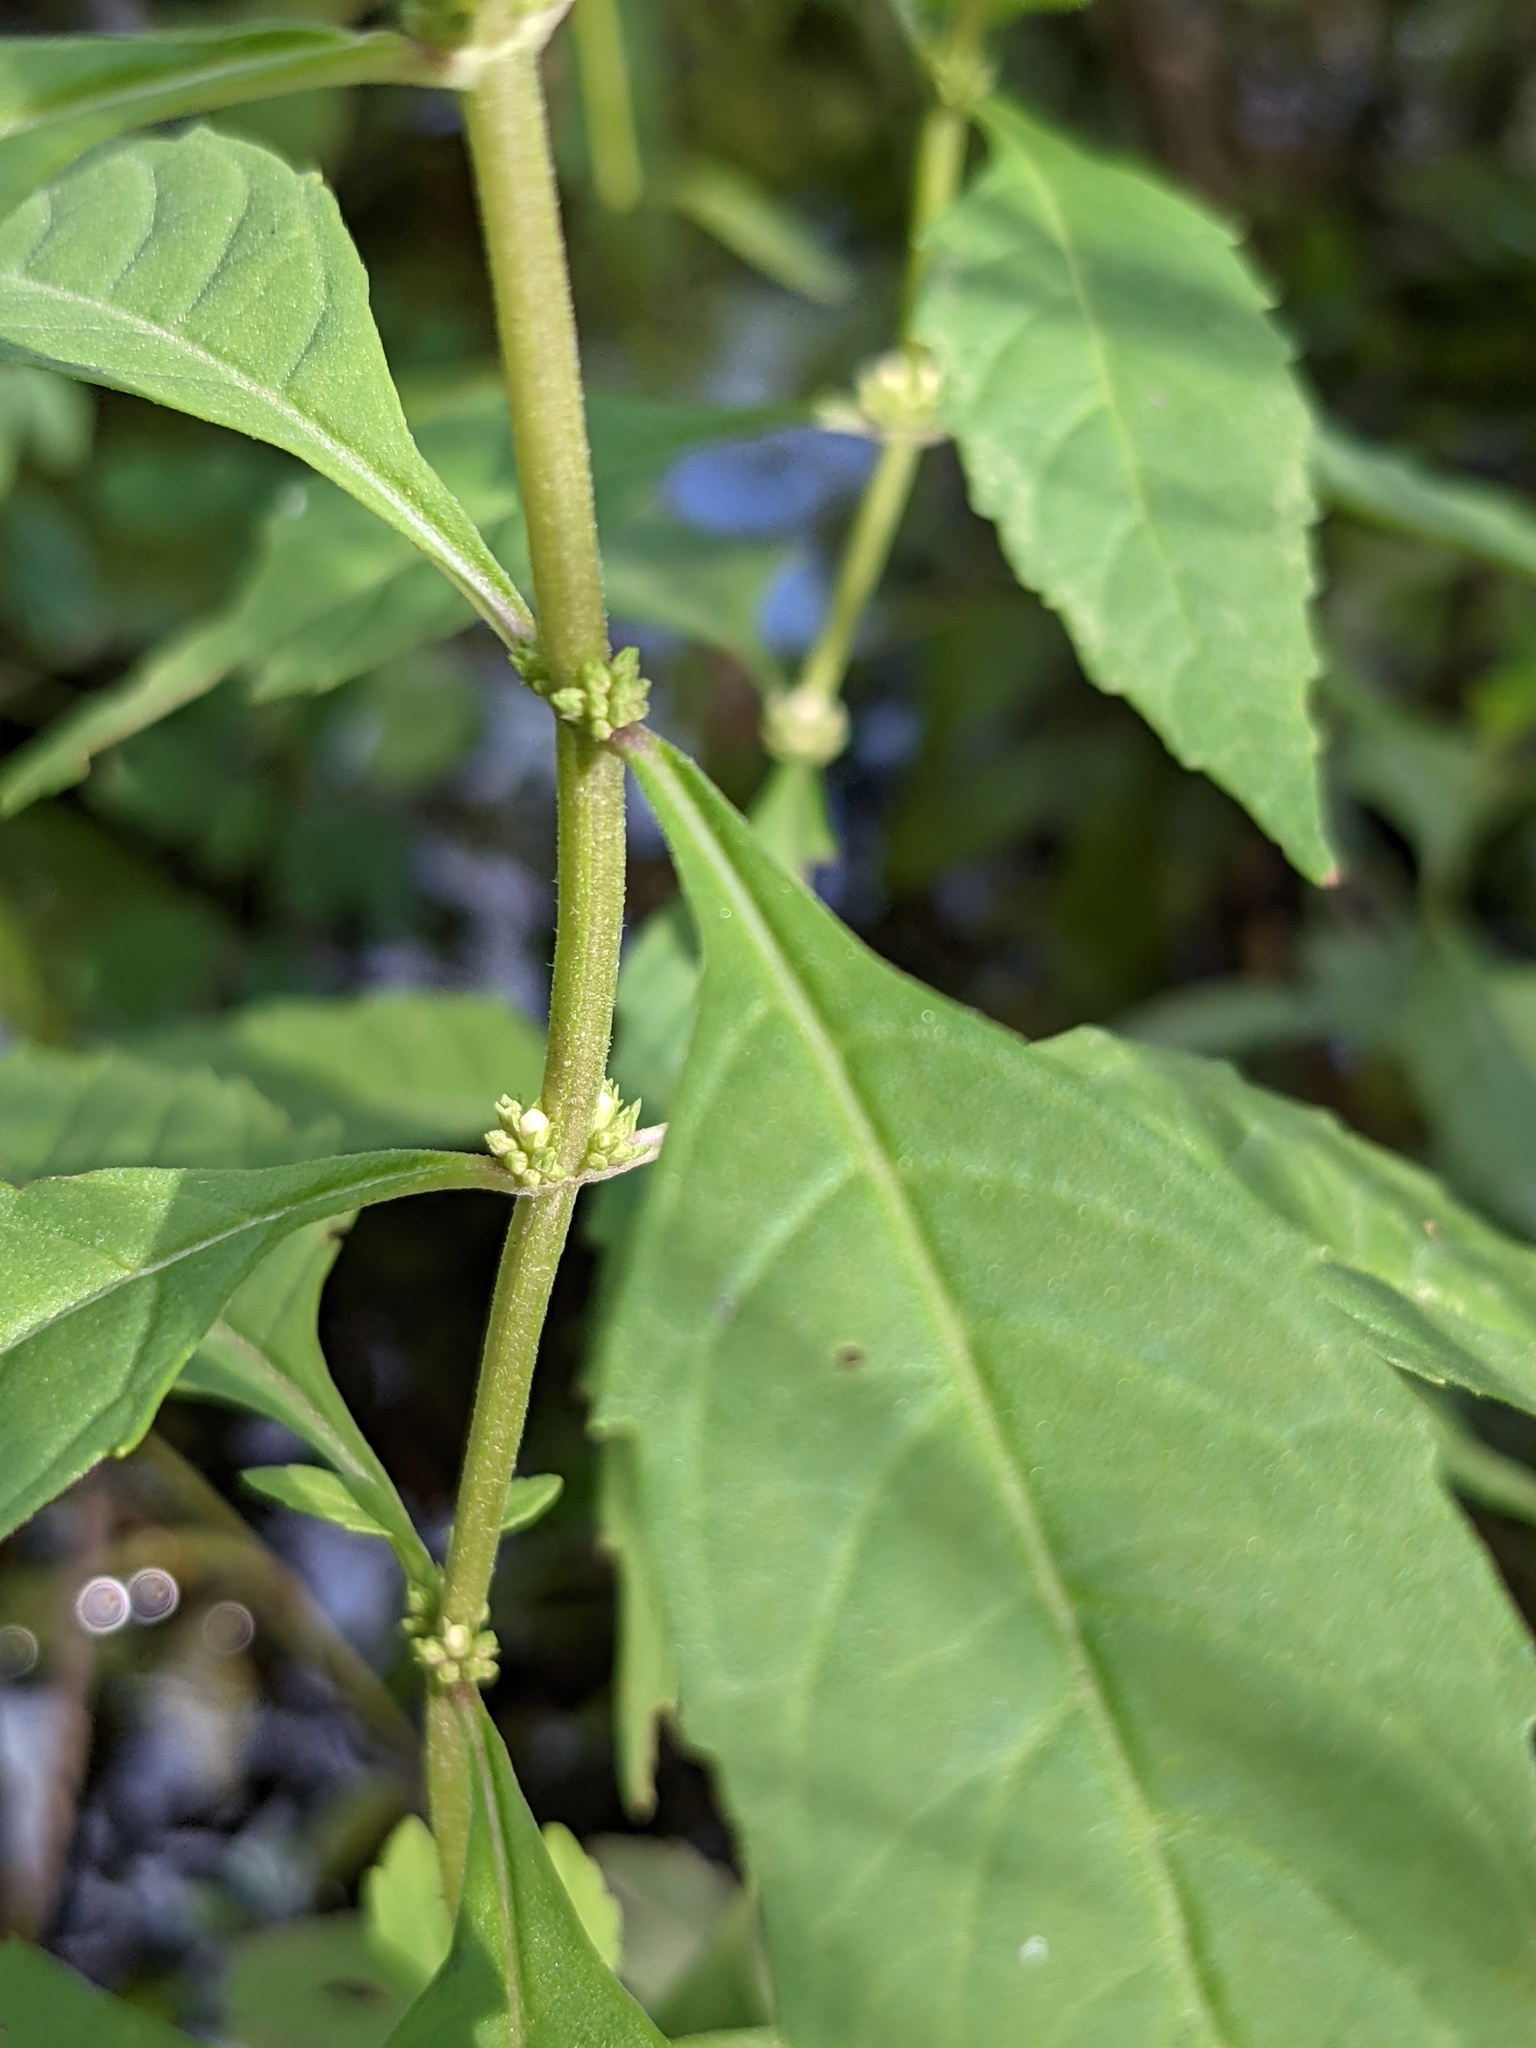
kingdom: Plantae
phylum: Tracheophyta
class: Magnoliopsida
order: Lamiales
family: Lamiaceae
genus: Lycopus
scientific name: Lycopus uniflorus
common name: Northern bugleweed
